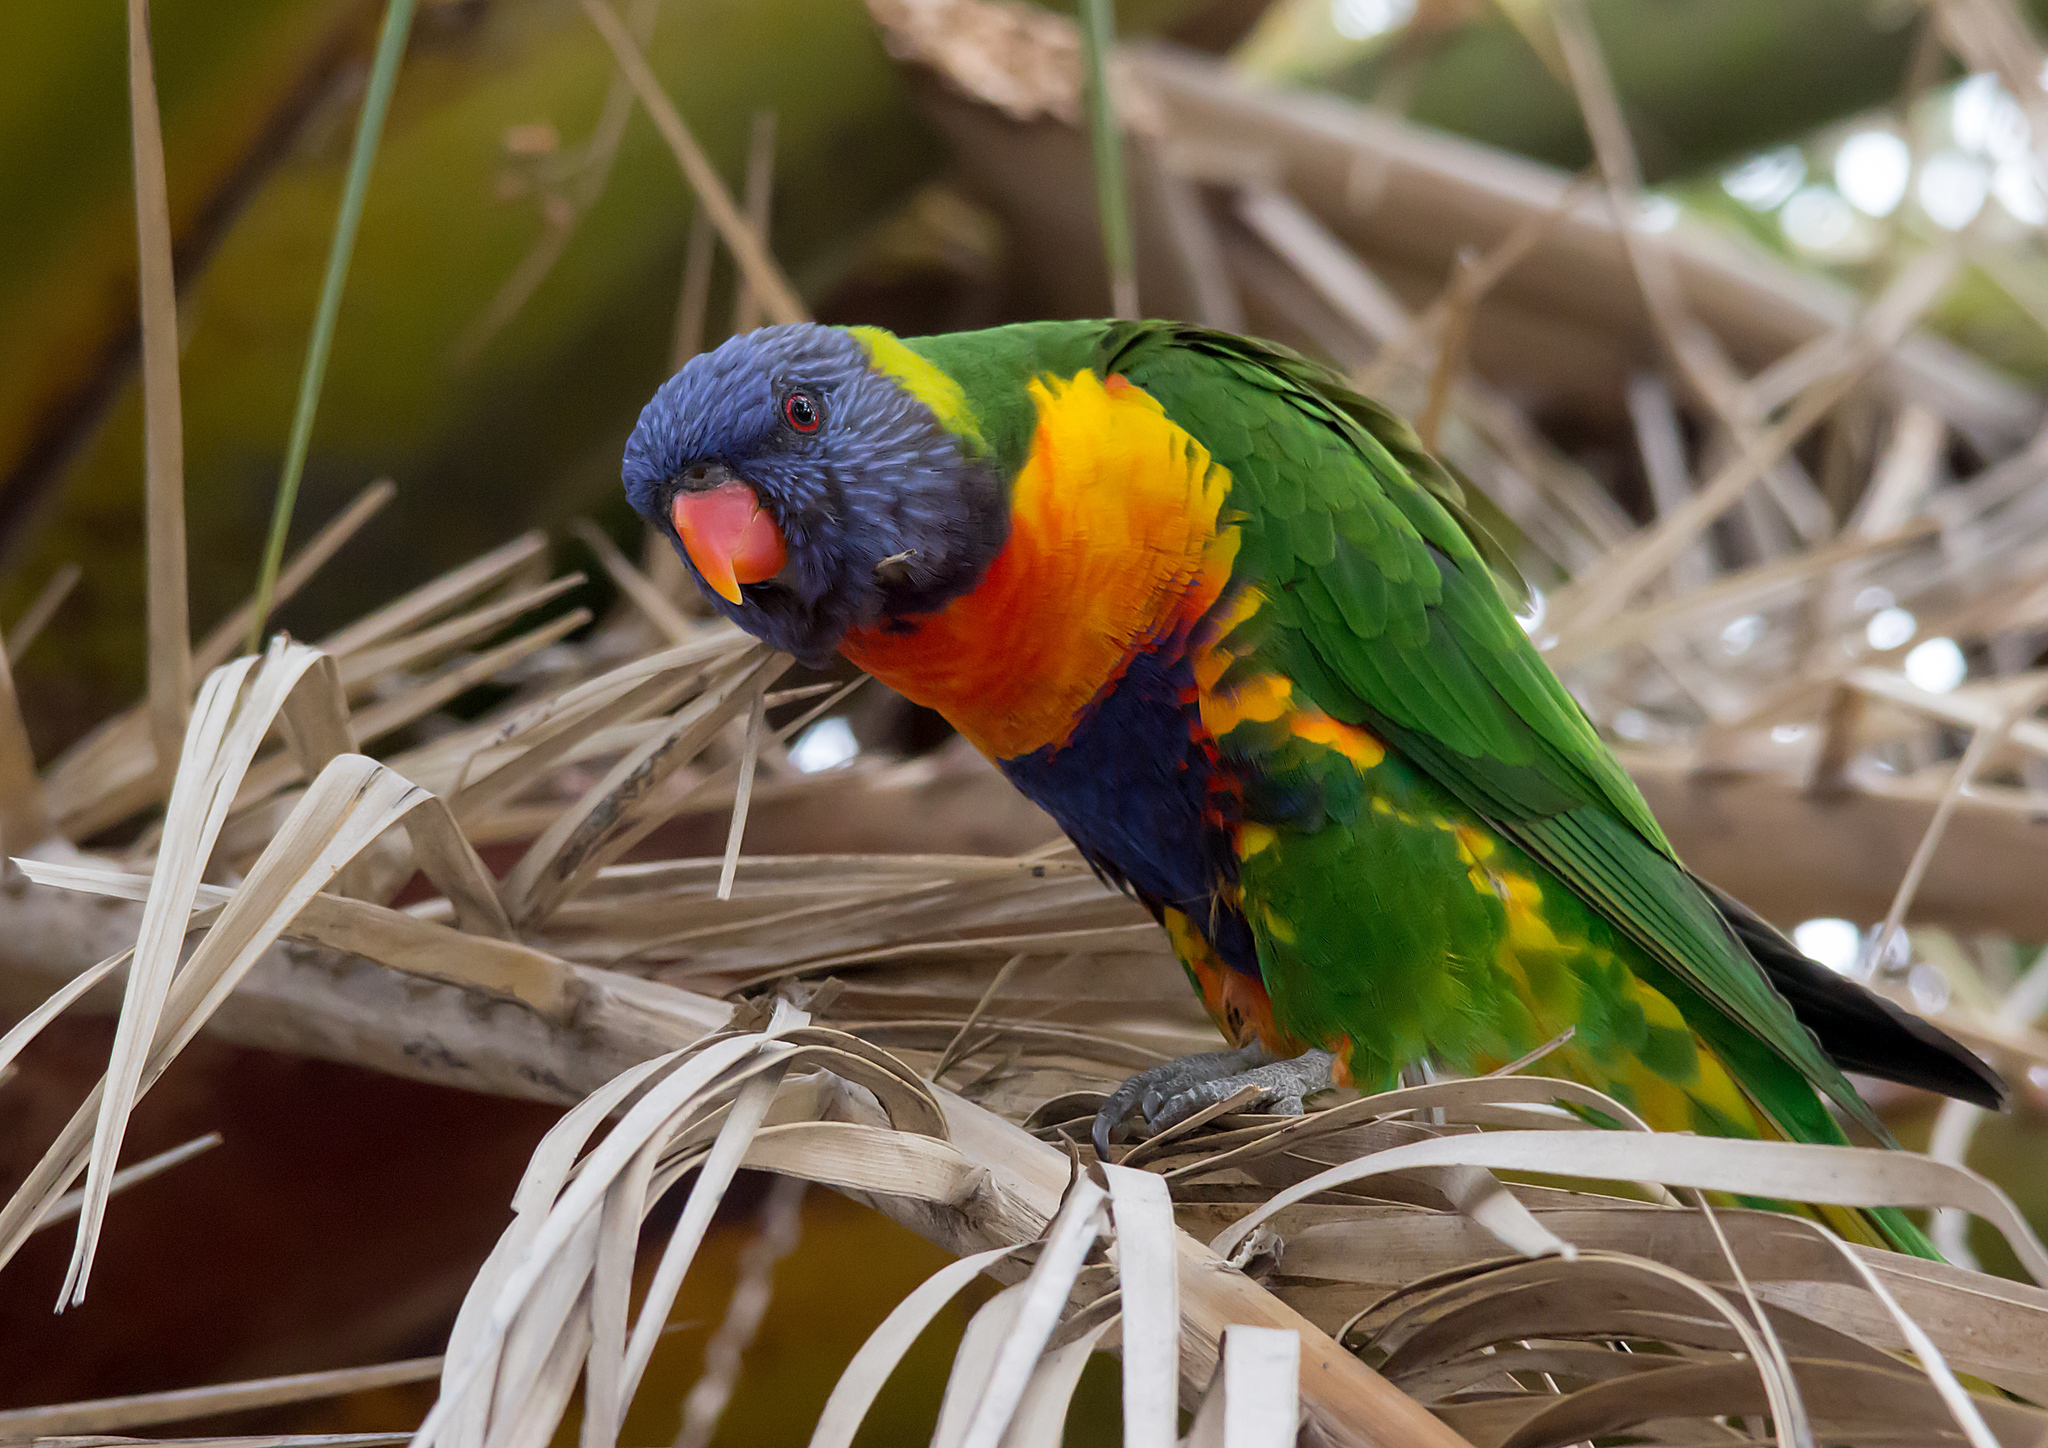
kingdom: Animalia
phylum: Chordata
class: Aves
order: Psittaciformes
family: Psittacidae
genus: Trichoglossus
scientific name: Trichoglossus haematodus
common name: Coconut lorikeet
